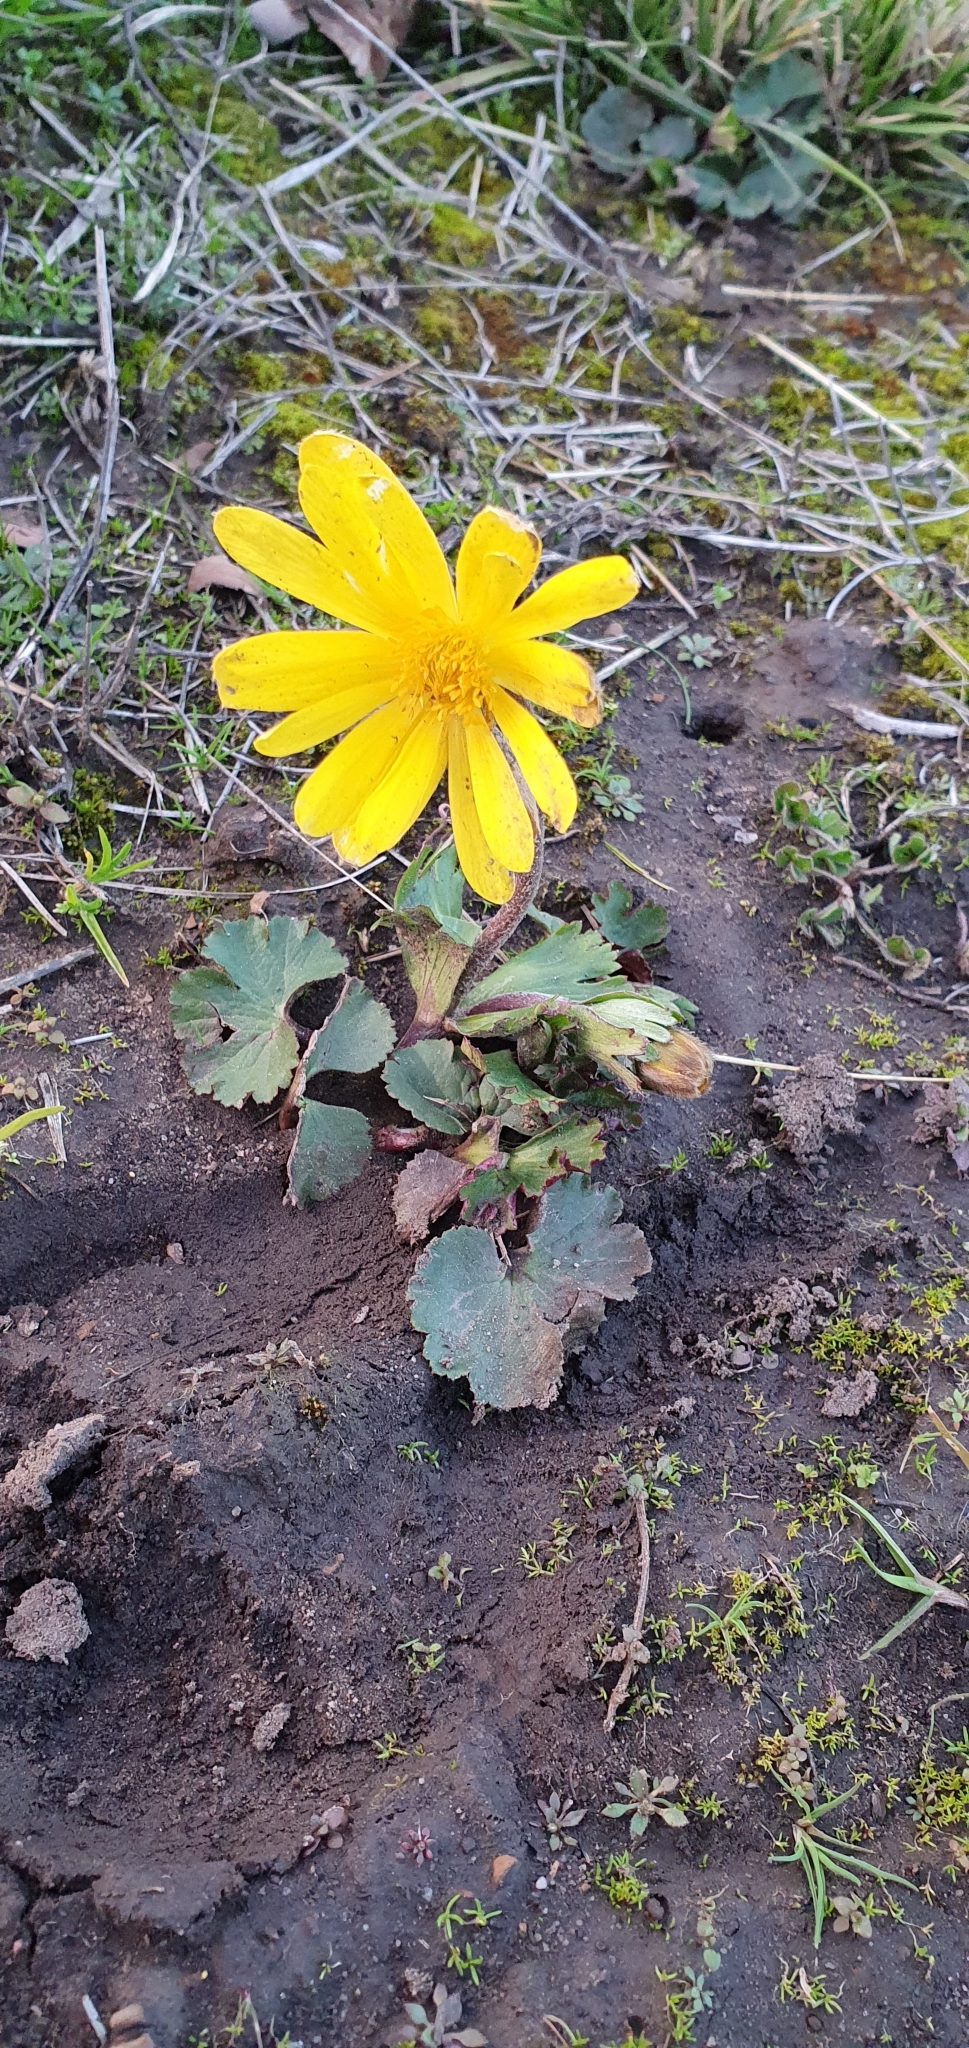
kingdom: Plantae
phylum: Tracheophyta
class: Magnoliopsida
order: Ranunculales
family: Ranunculaceae
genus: Anemone
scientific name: Anemone palmata
